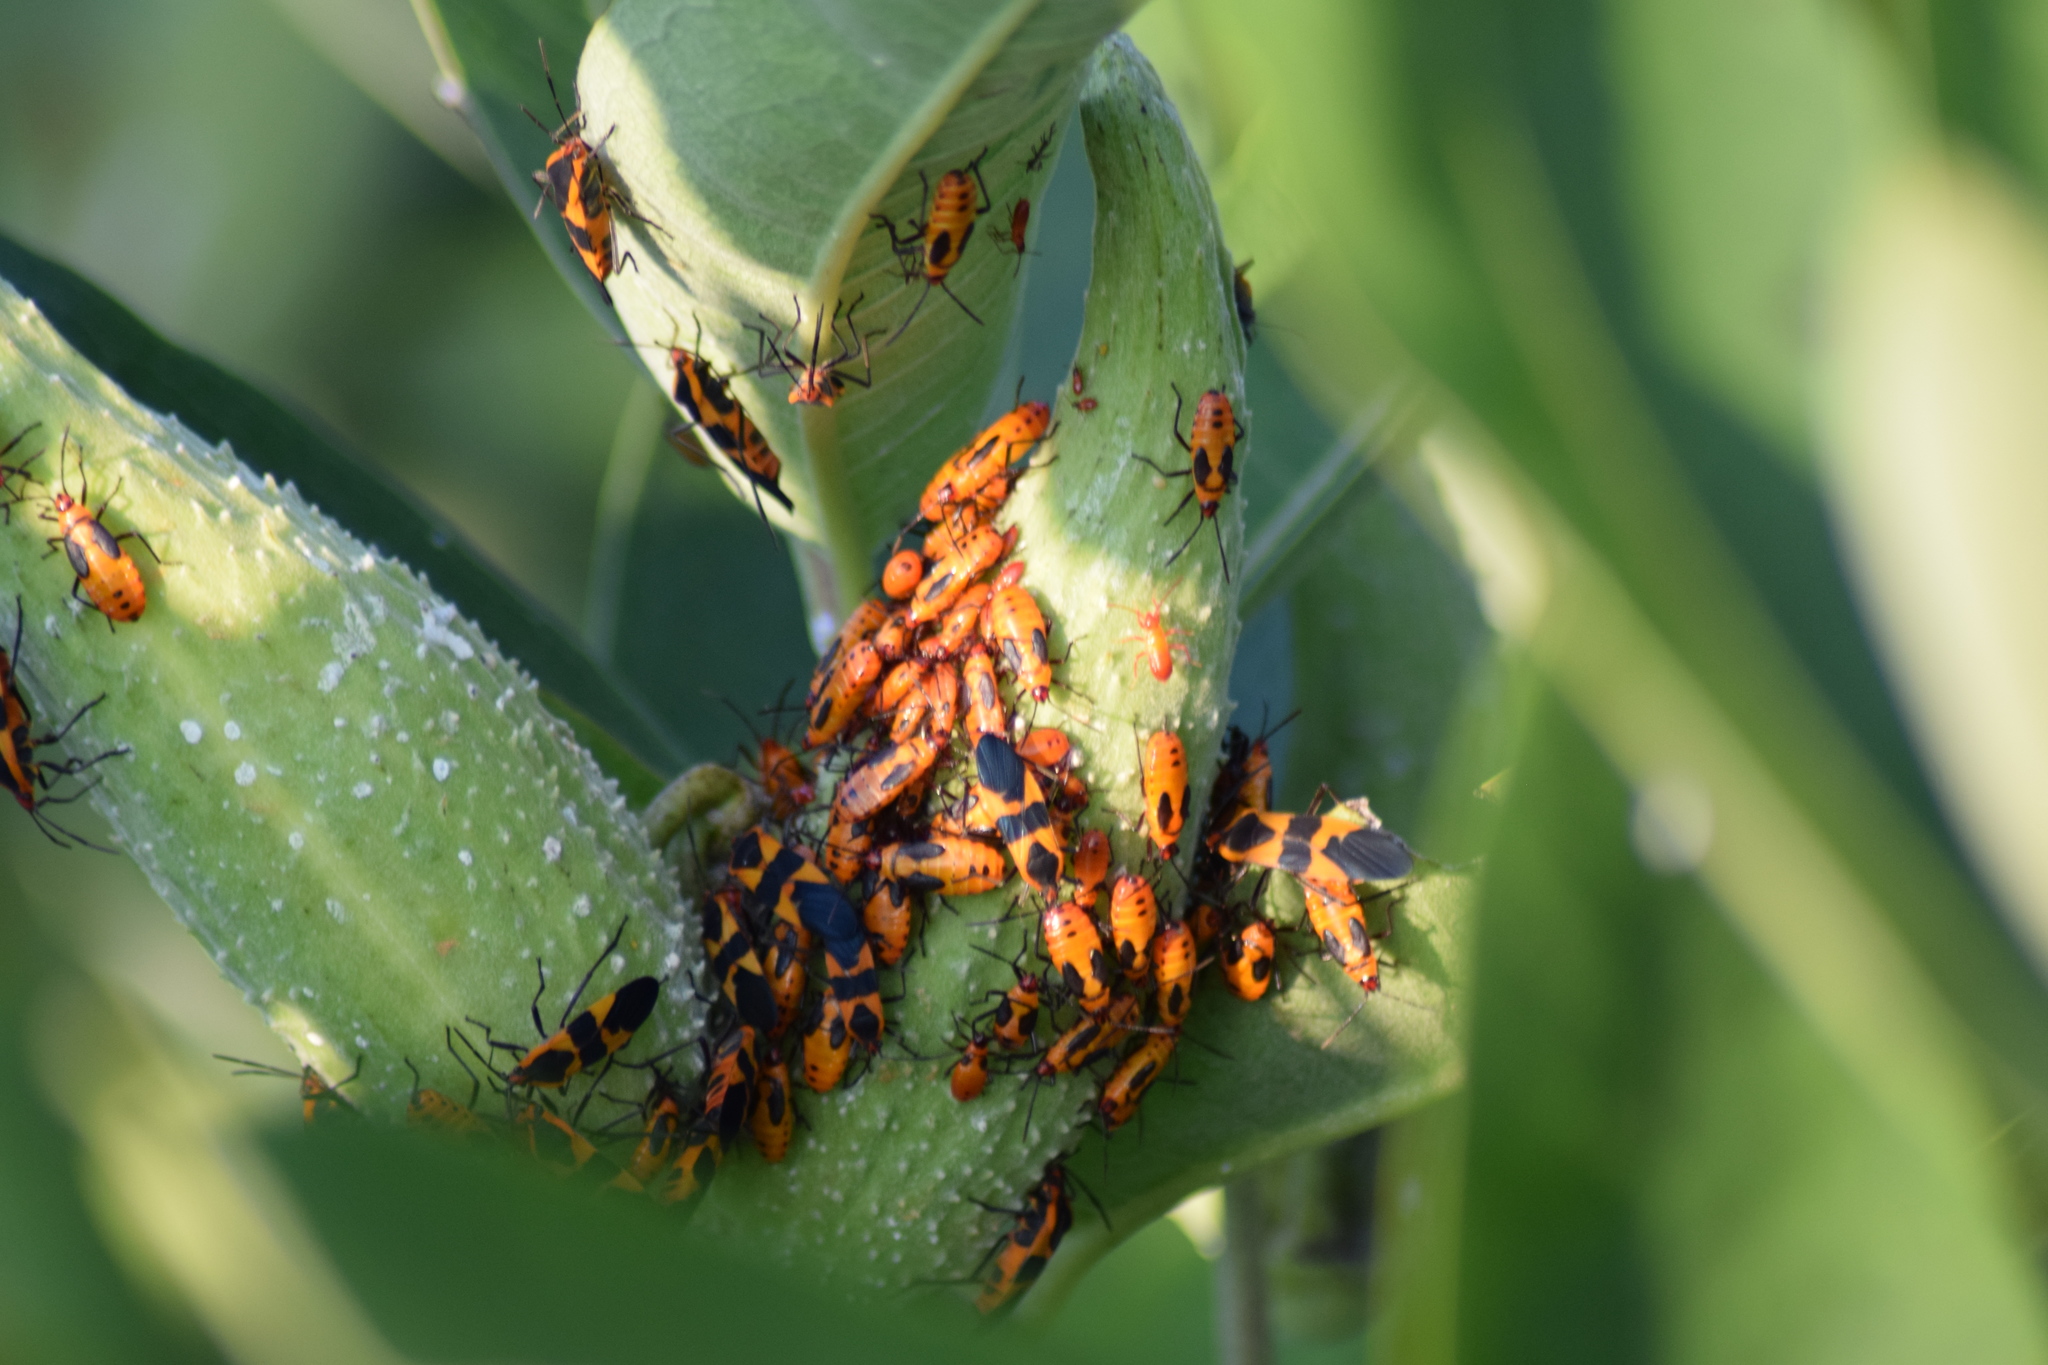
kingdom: Animalia
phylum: Arthropoda
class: Insecta
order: Hemiptera
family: Lygaeidae
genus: Oncopeltus
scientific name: Oncopeltus fasciatus
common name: Large milkweed bug
